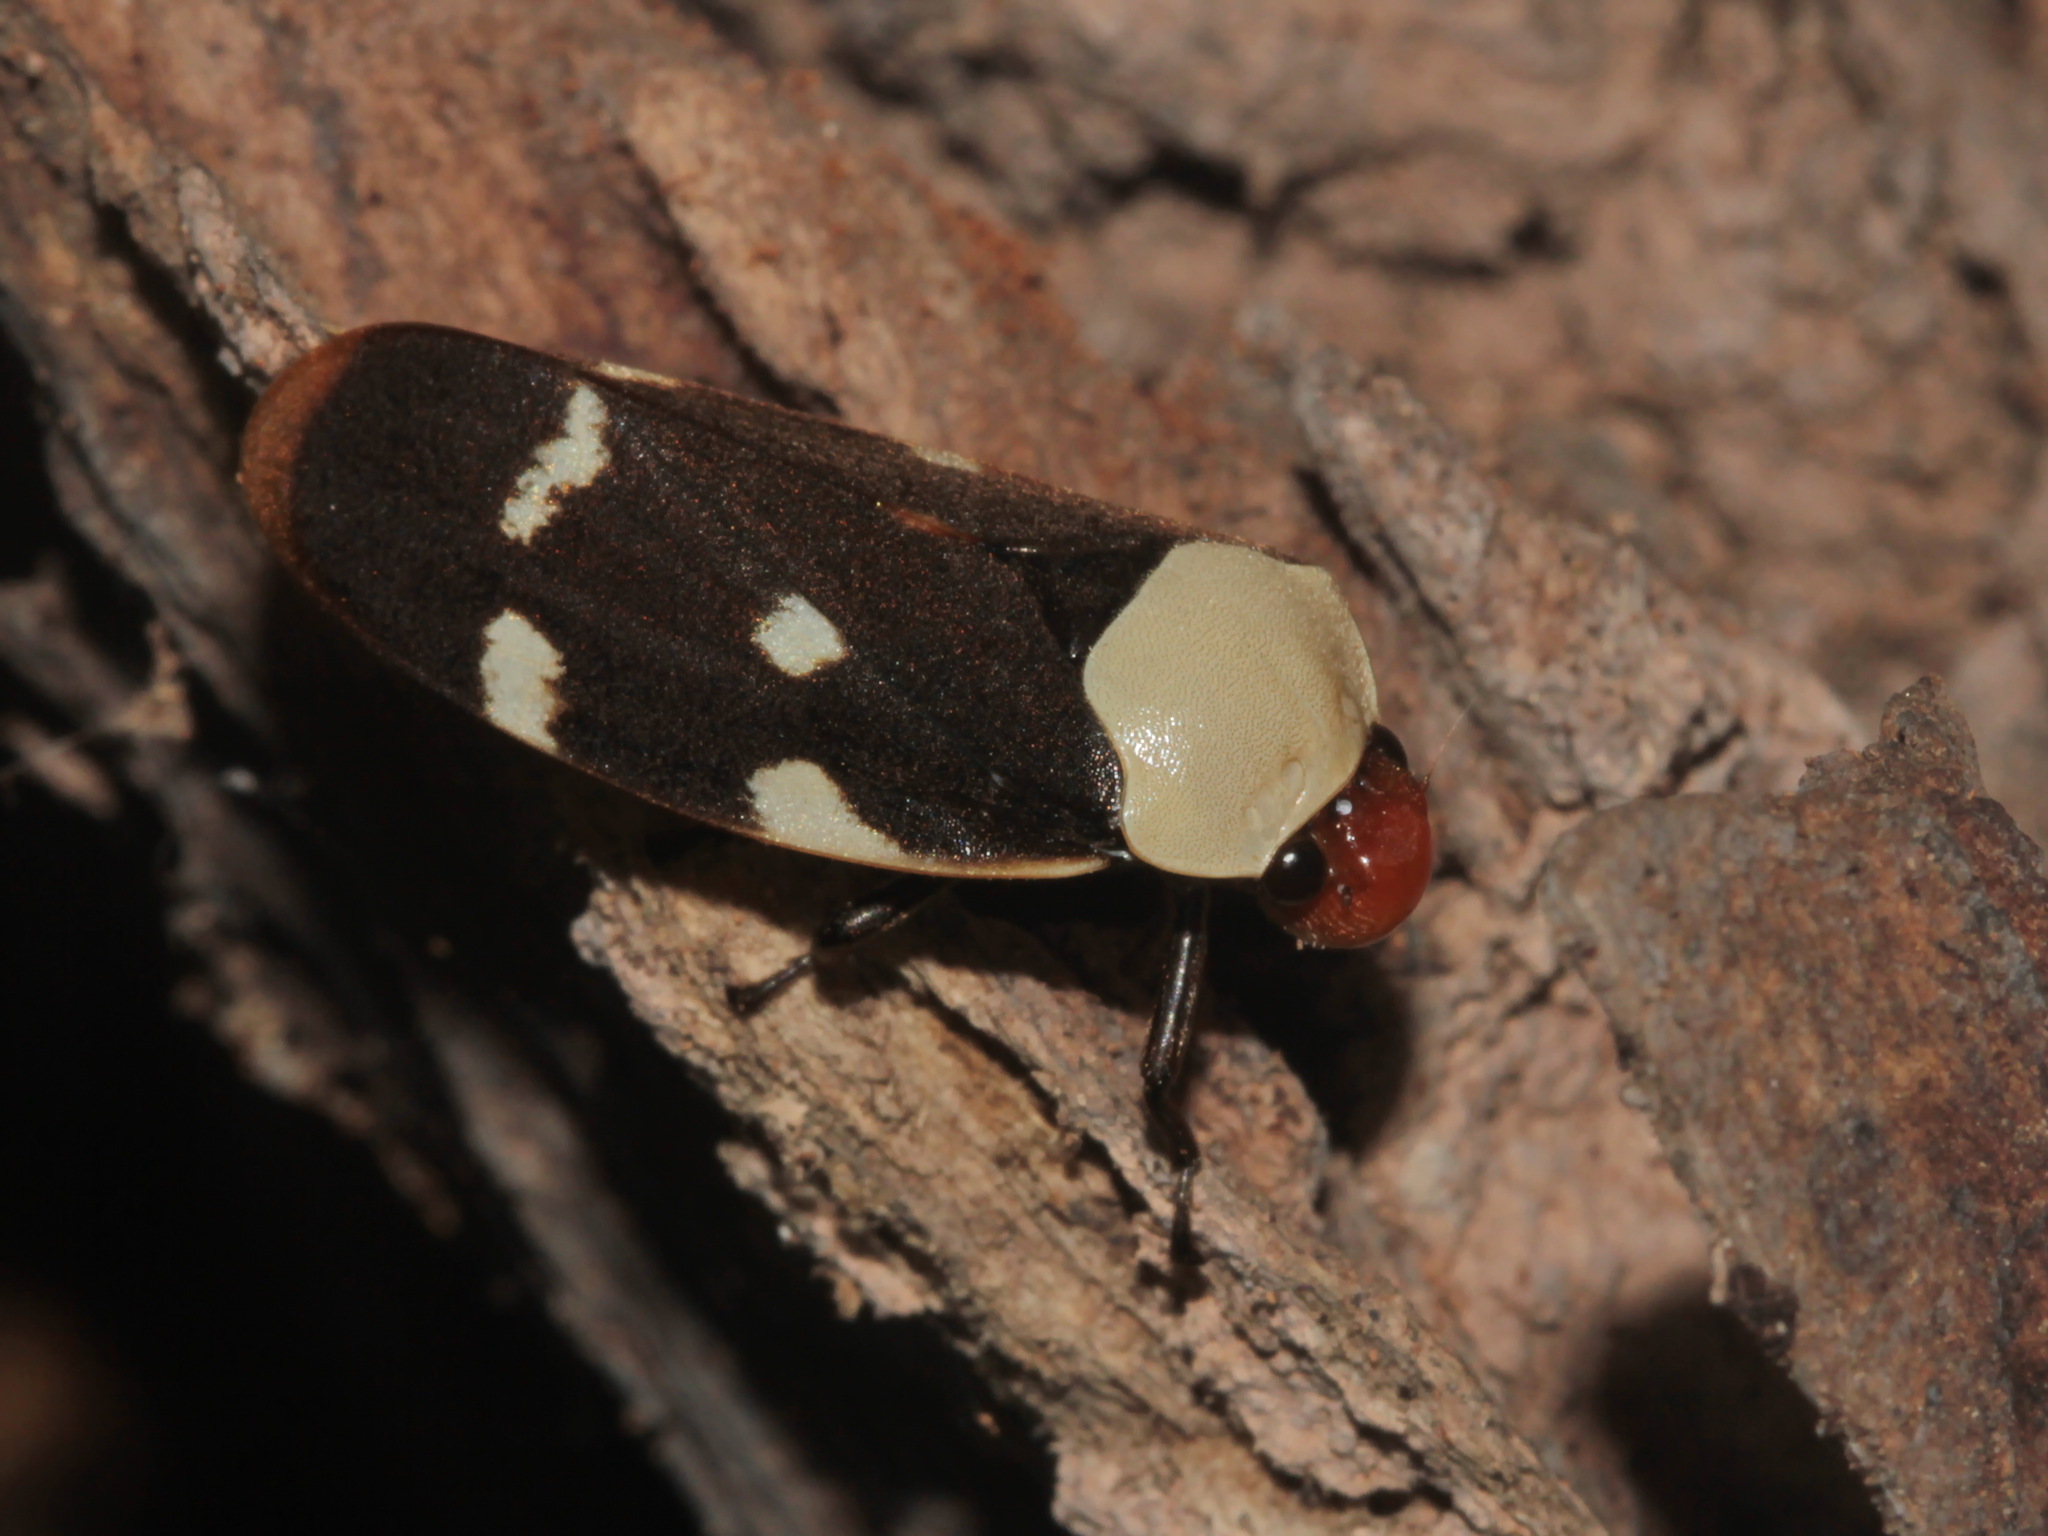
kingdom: Animalia
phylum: Arthropoda
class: Insecta
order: Hemiptera
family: Cercopidae
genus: Phymatostetha
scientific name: Phymatostetha karenia
